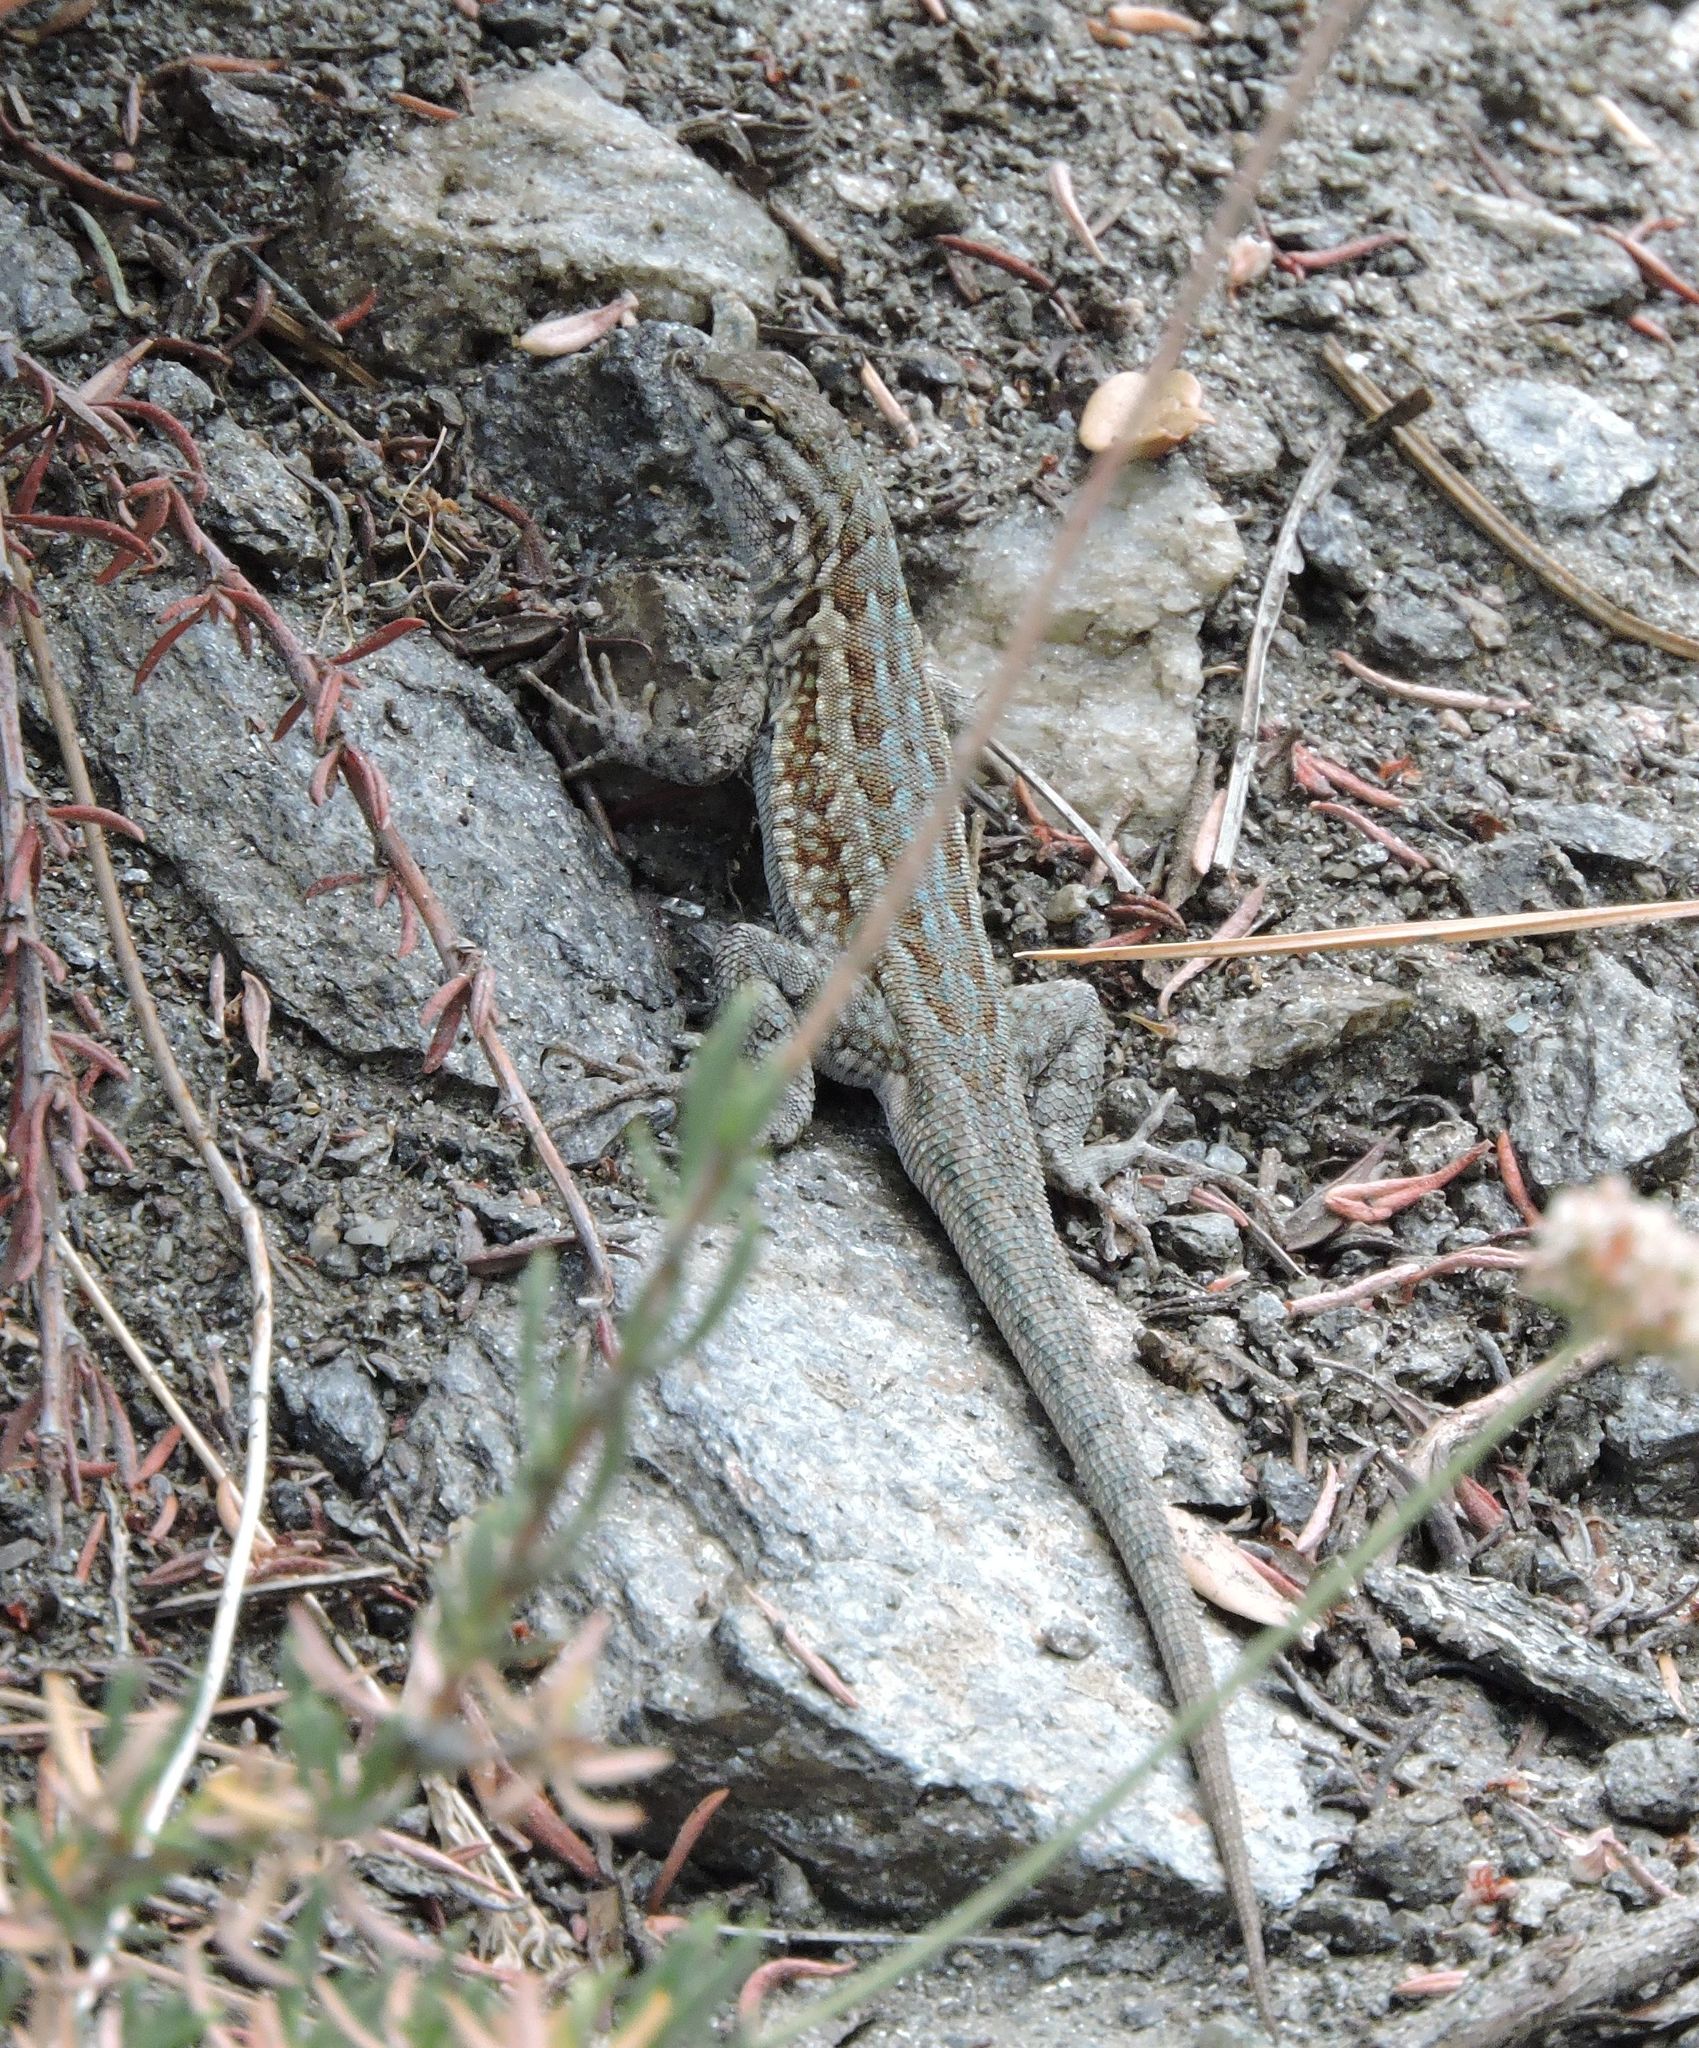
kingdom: Animalia
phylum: Chordata
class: Squamata
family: Phrynosomatidae
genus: Uta
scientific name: Uta stansburiana
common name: Side-blotched lizard
